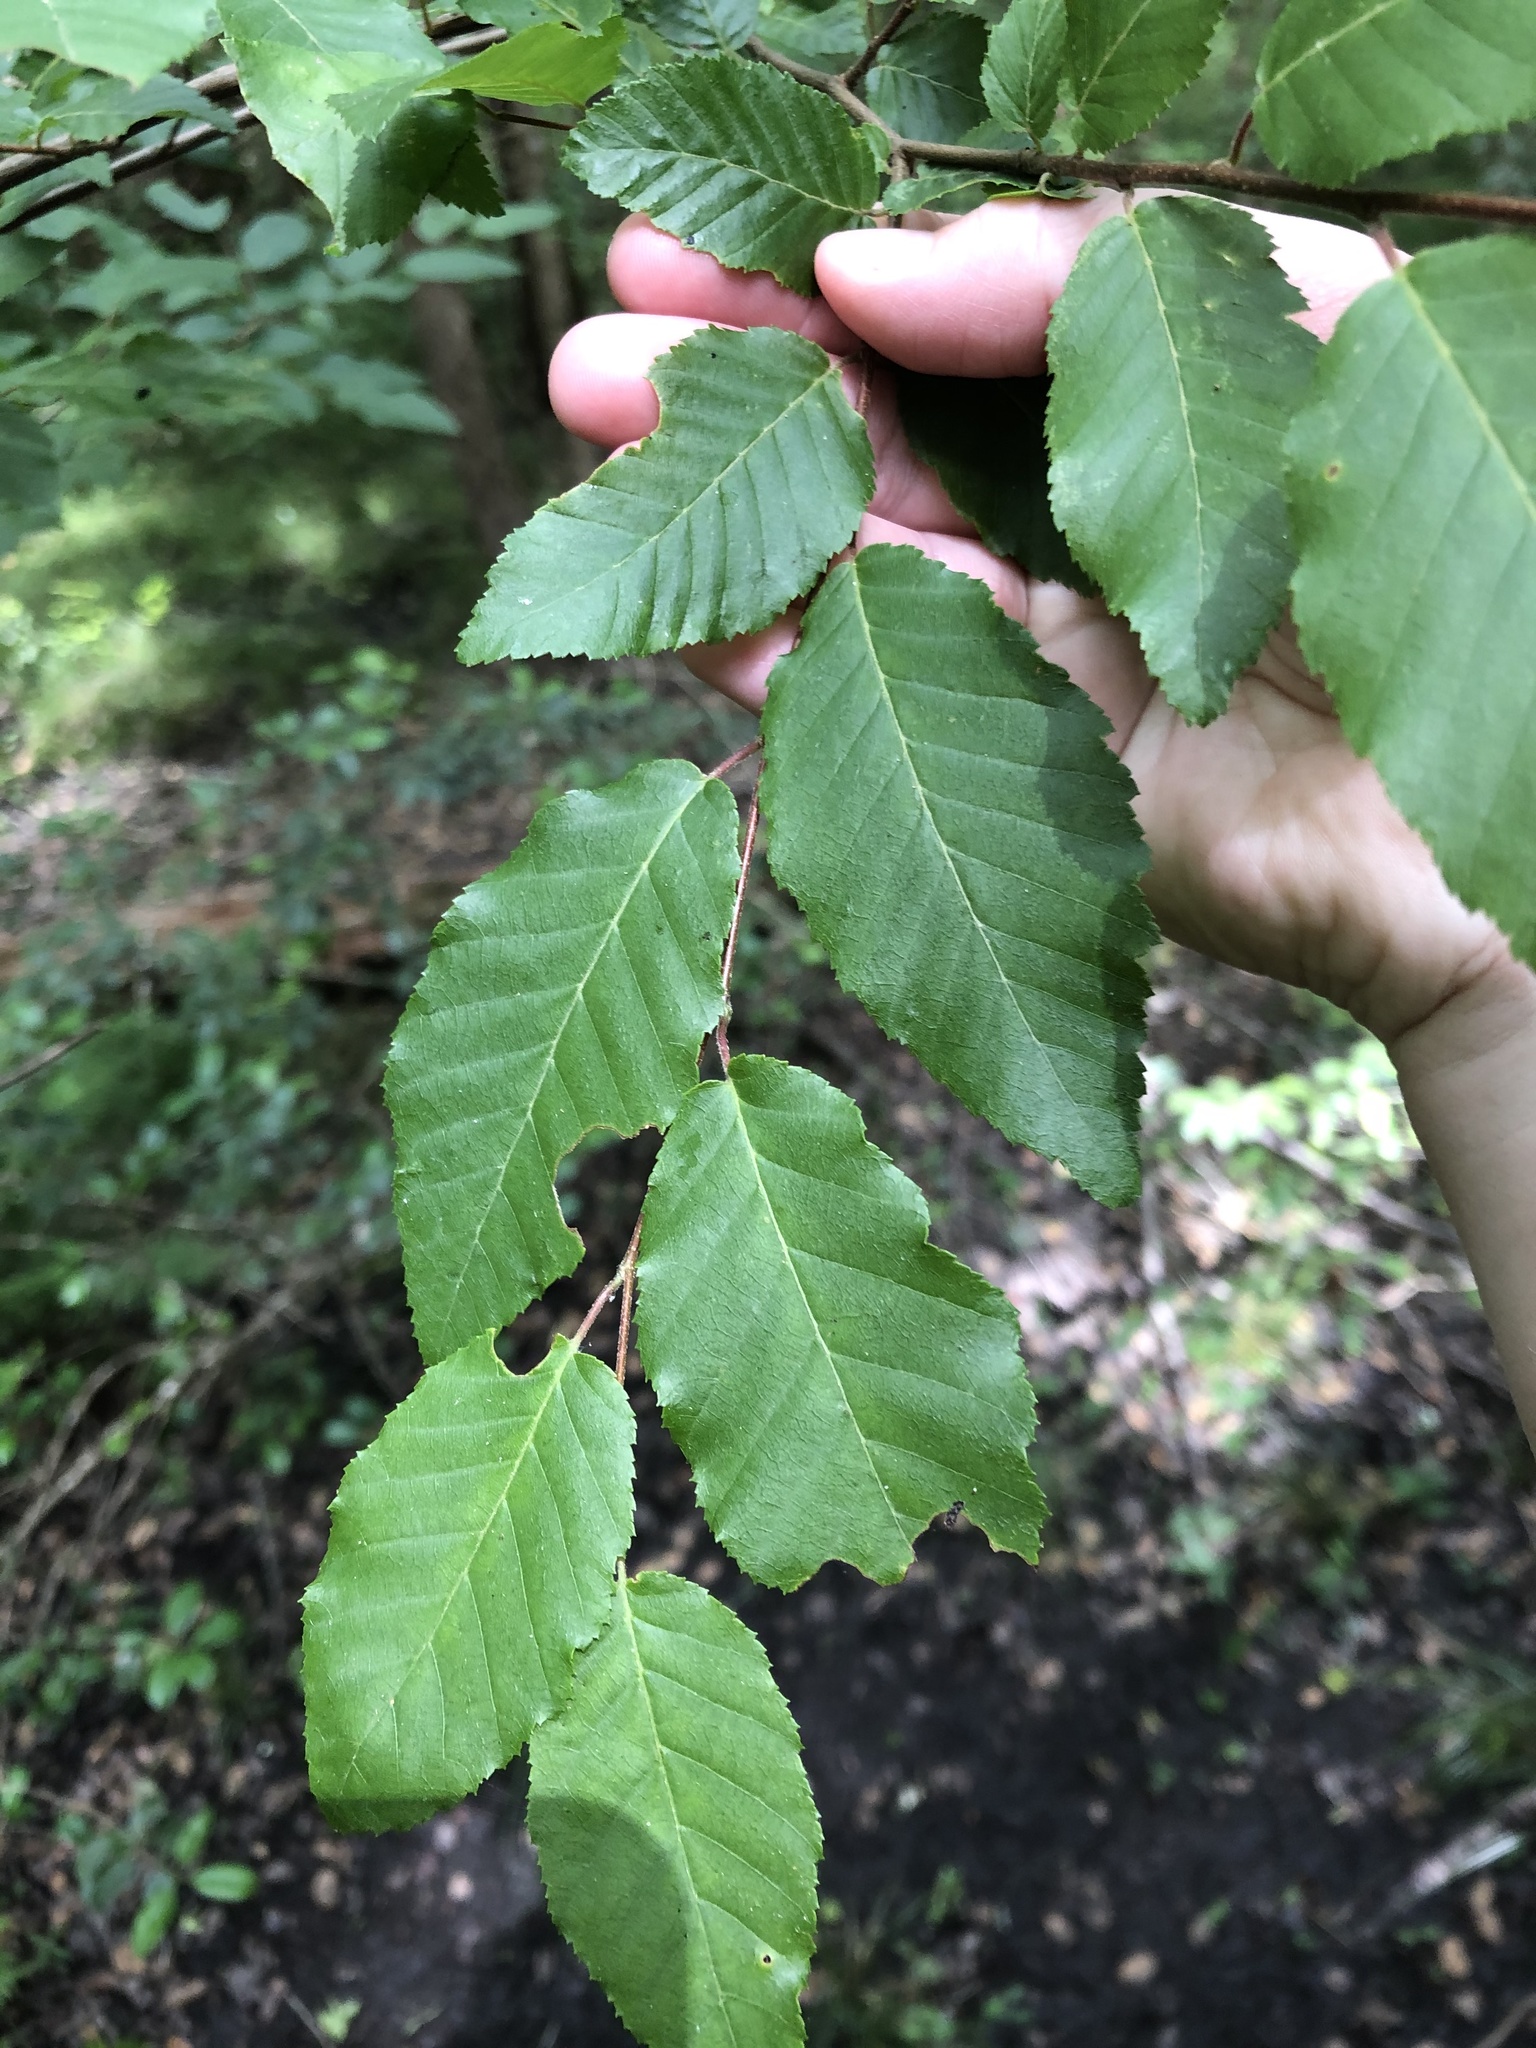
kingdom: Plantae
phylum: Tracheophyta
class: Magnoliopsida
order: Fagales
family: Betulaceae
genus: Carpinus
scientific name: Carpinus caroliniana
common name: American hornbeam
